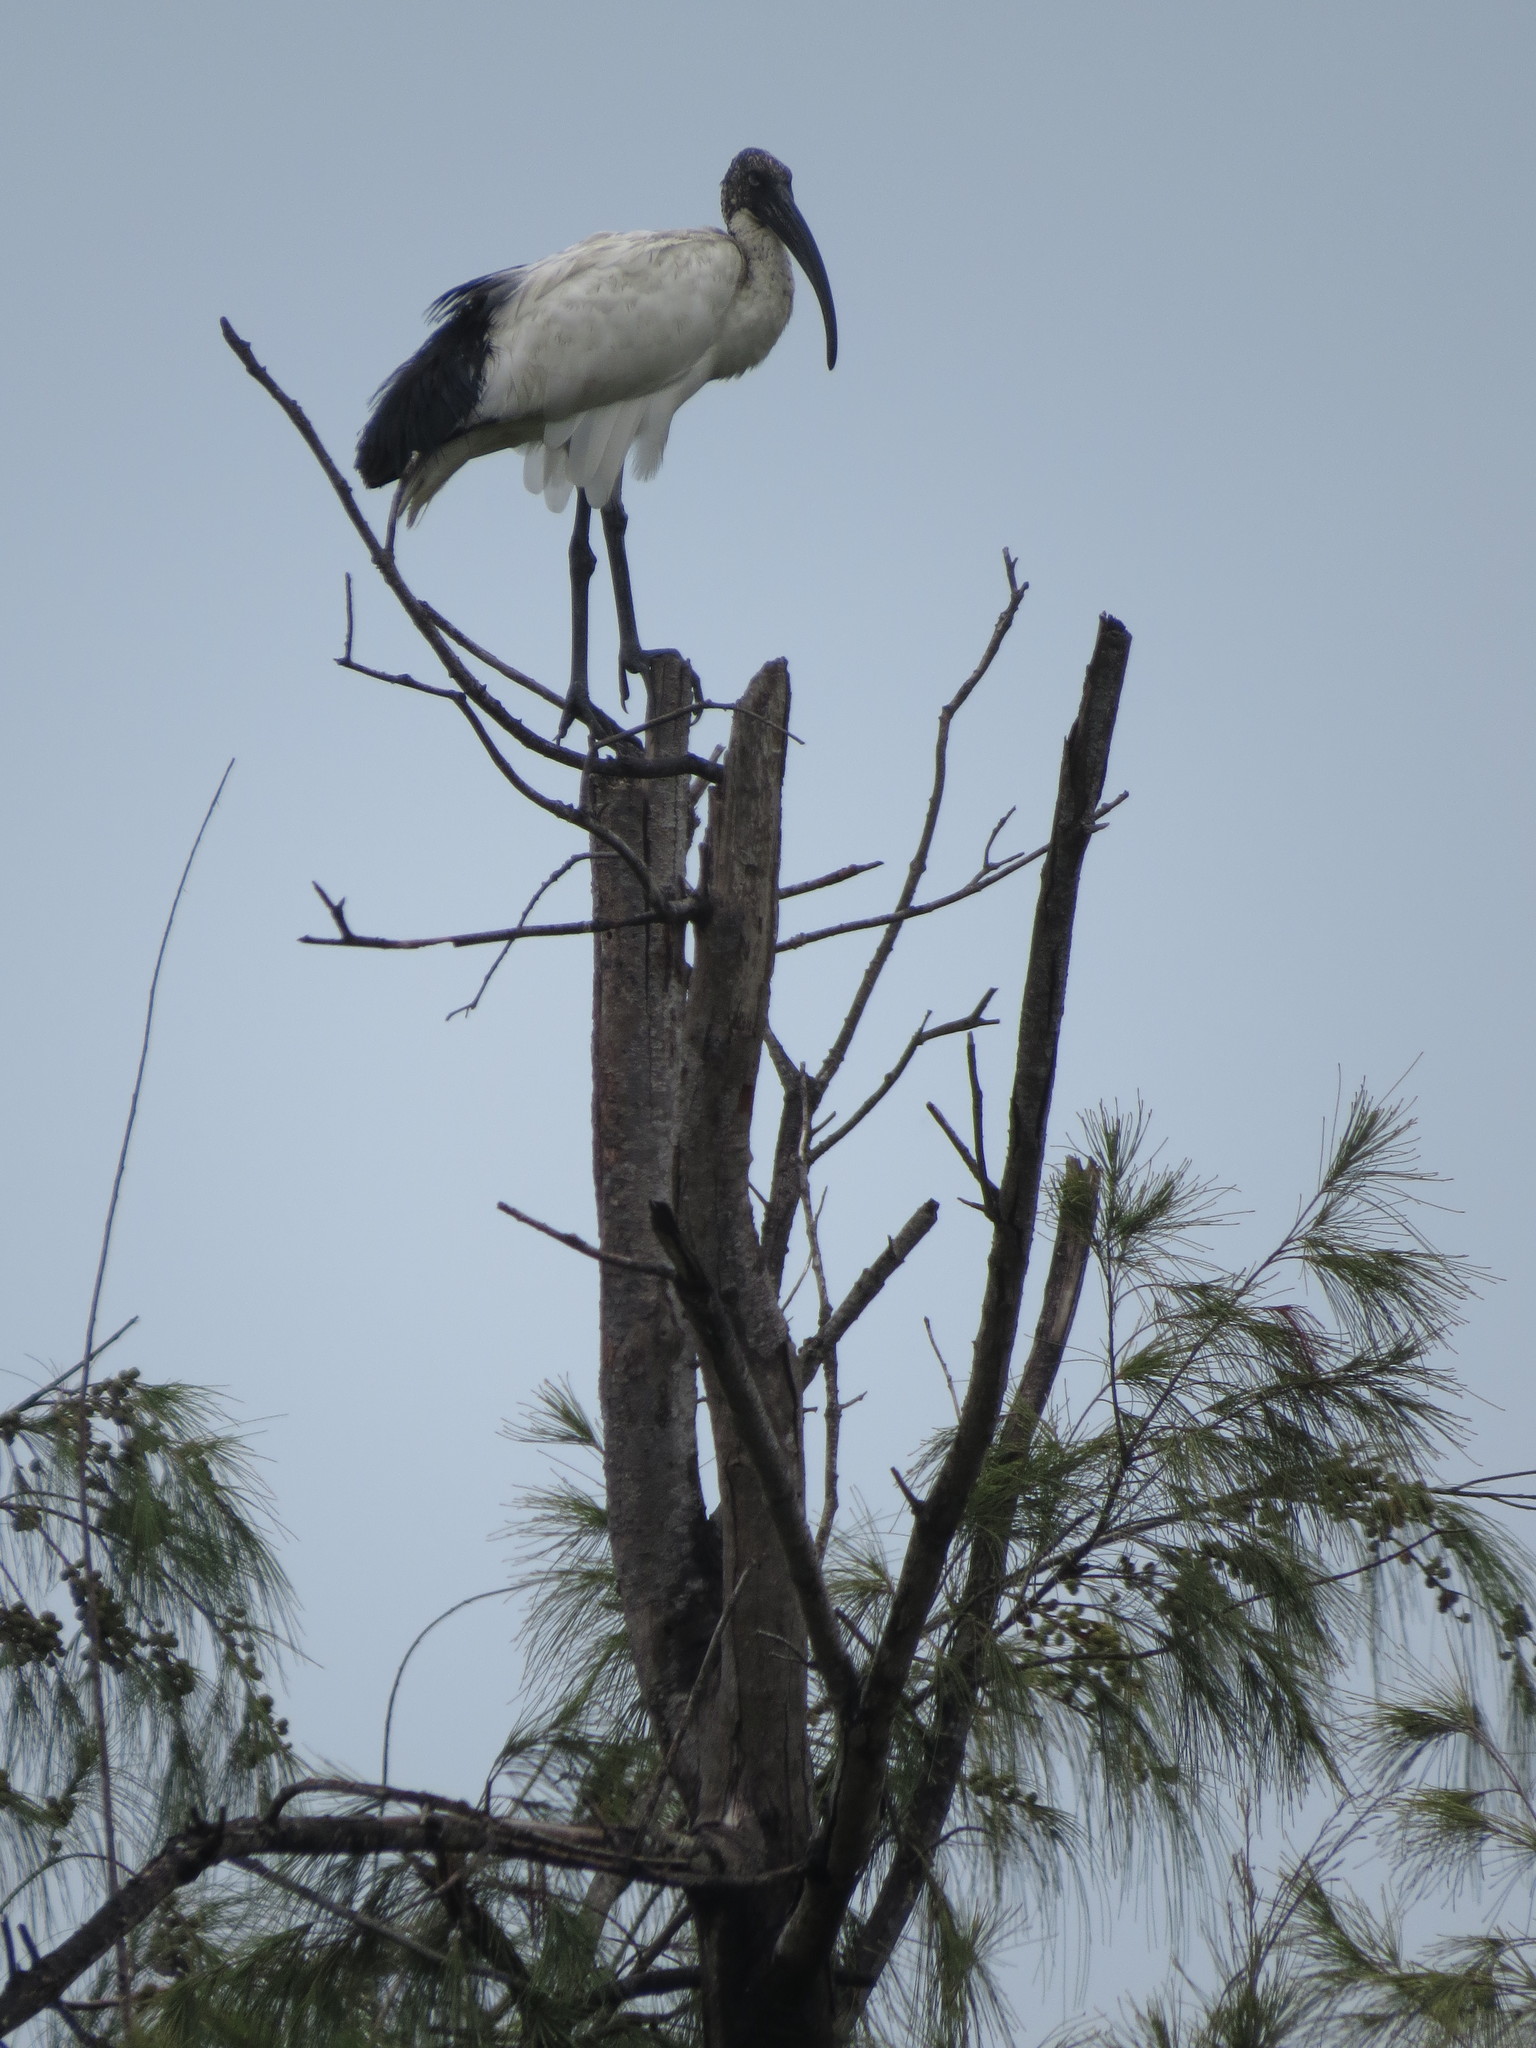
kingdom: Animalia
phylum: Chordata
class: Aves
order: Pelecaniformes
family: Threskiornithidae
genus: Threskiornis
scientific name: Threskiornis aethiopicus
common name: Sacred ibis
